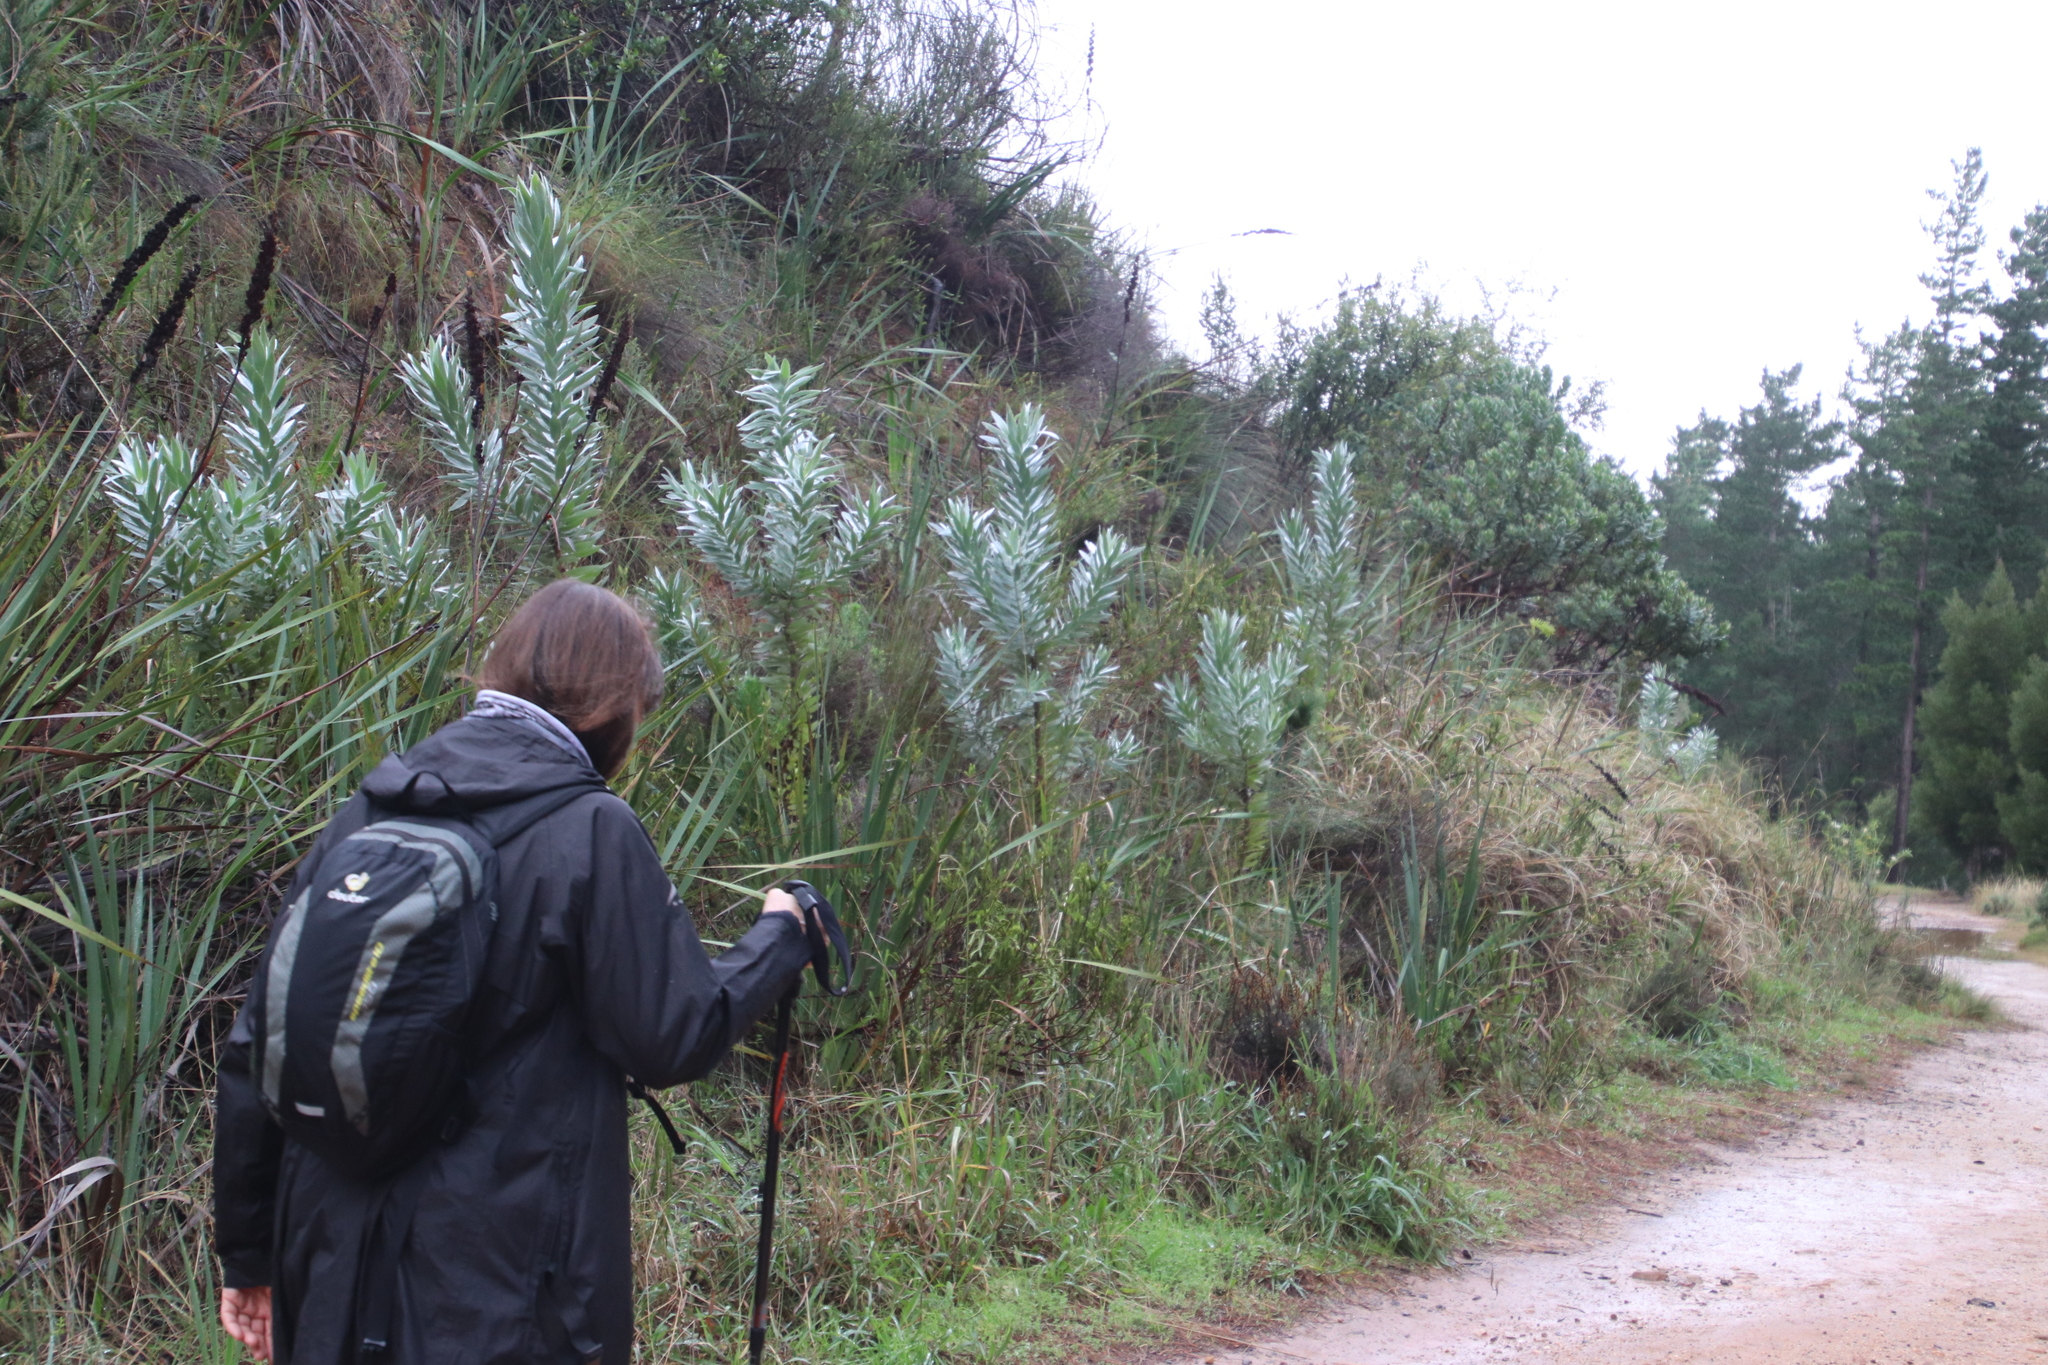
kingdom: Plantae
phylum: Tracheophyta
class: Magnoliopsida
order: Proteales
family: Proteaceae
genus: Leucadendron
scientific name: Leucadendron argenteum
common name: Cape silver tree
